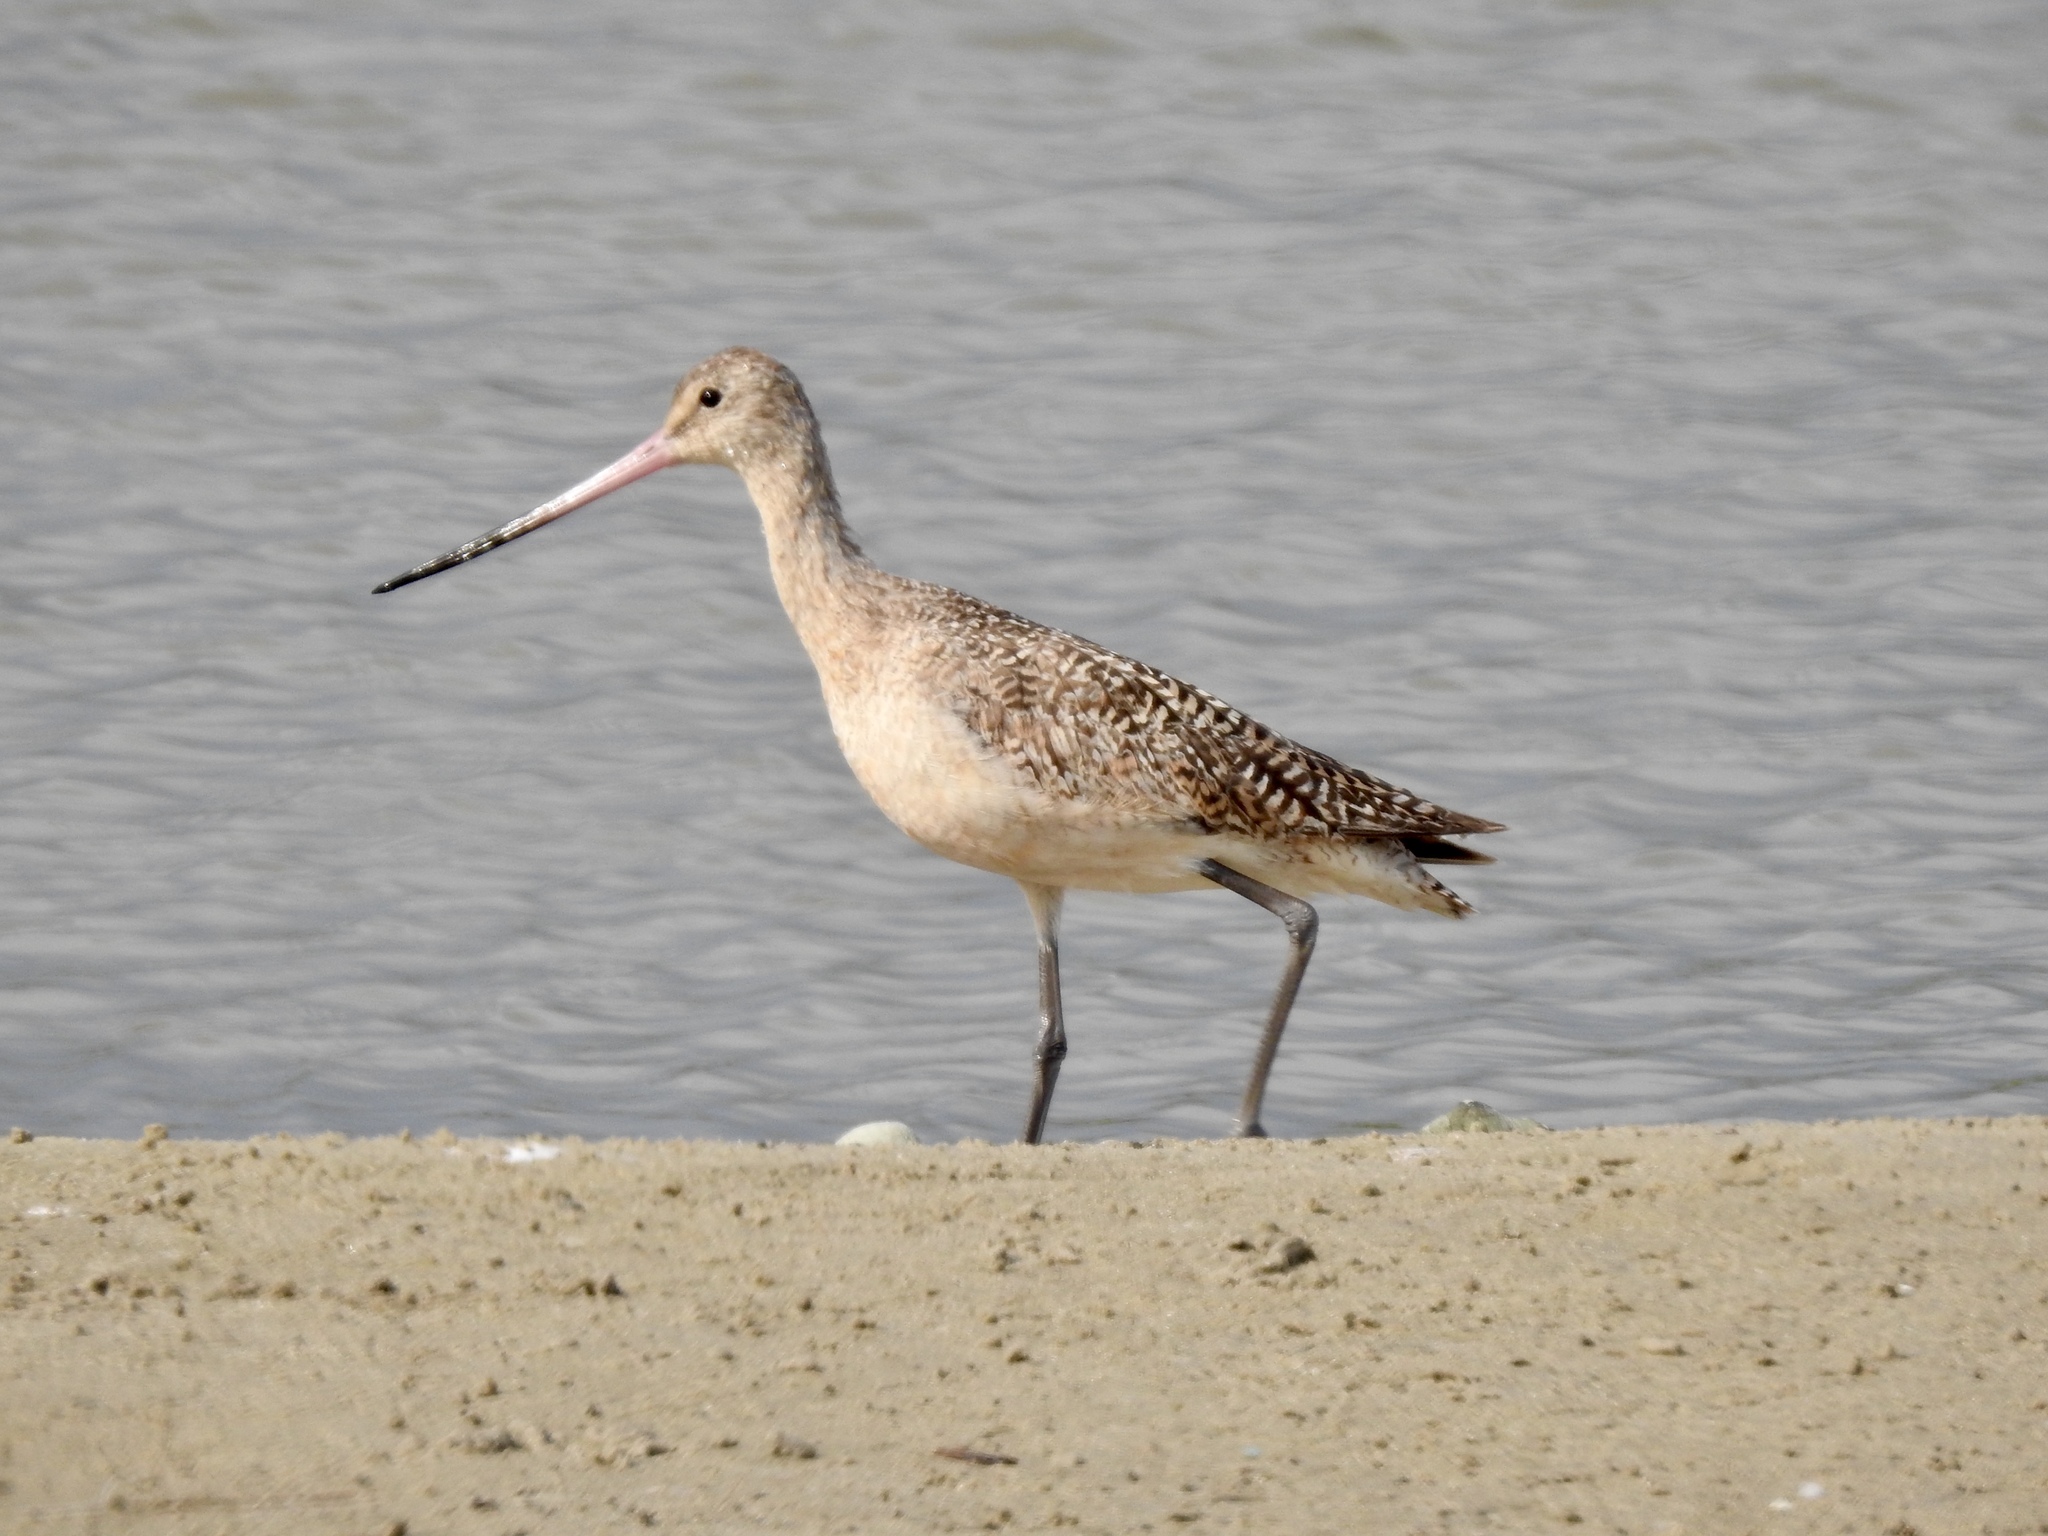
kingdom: Animalia
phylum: Chordata
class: Aves
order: Charadriiformes
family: Scolopacidae
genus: Limosa
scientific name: Limosa fedoa
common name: Marbled godwit
